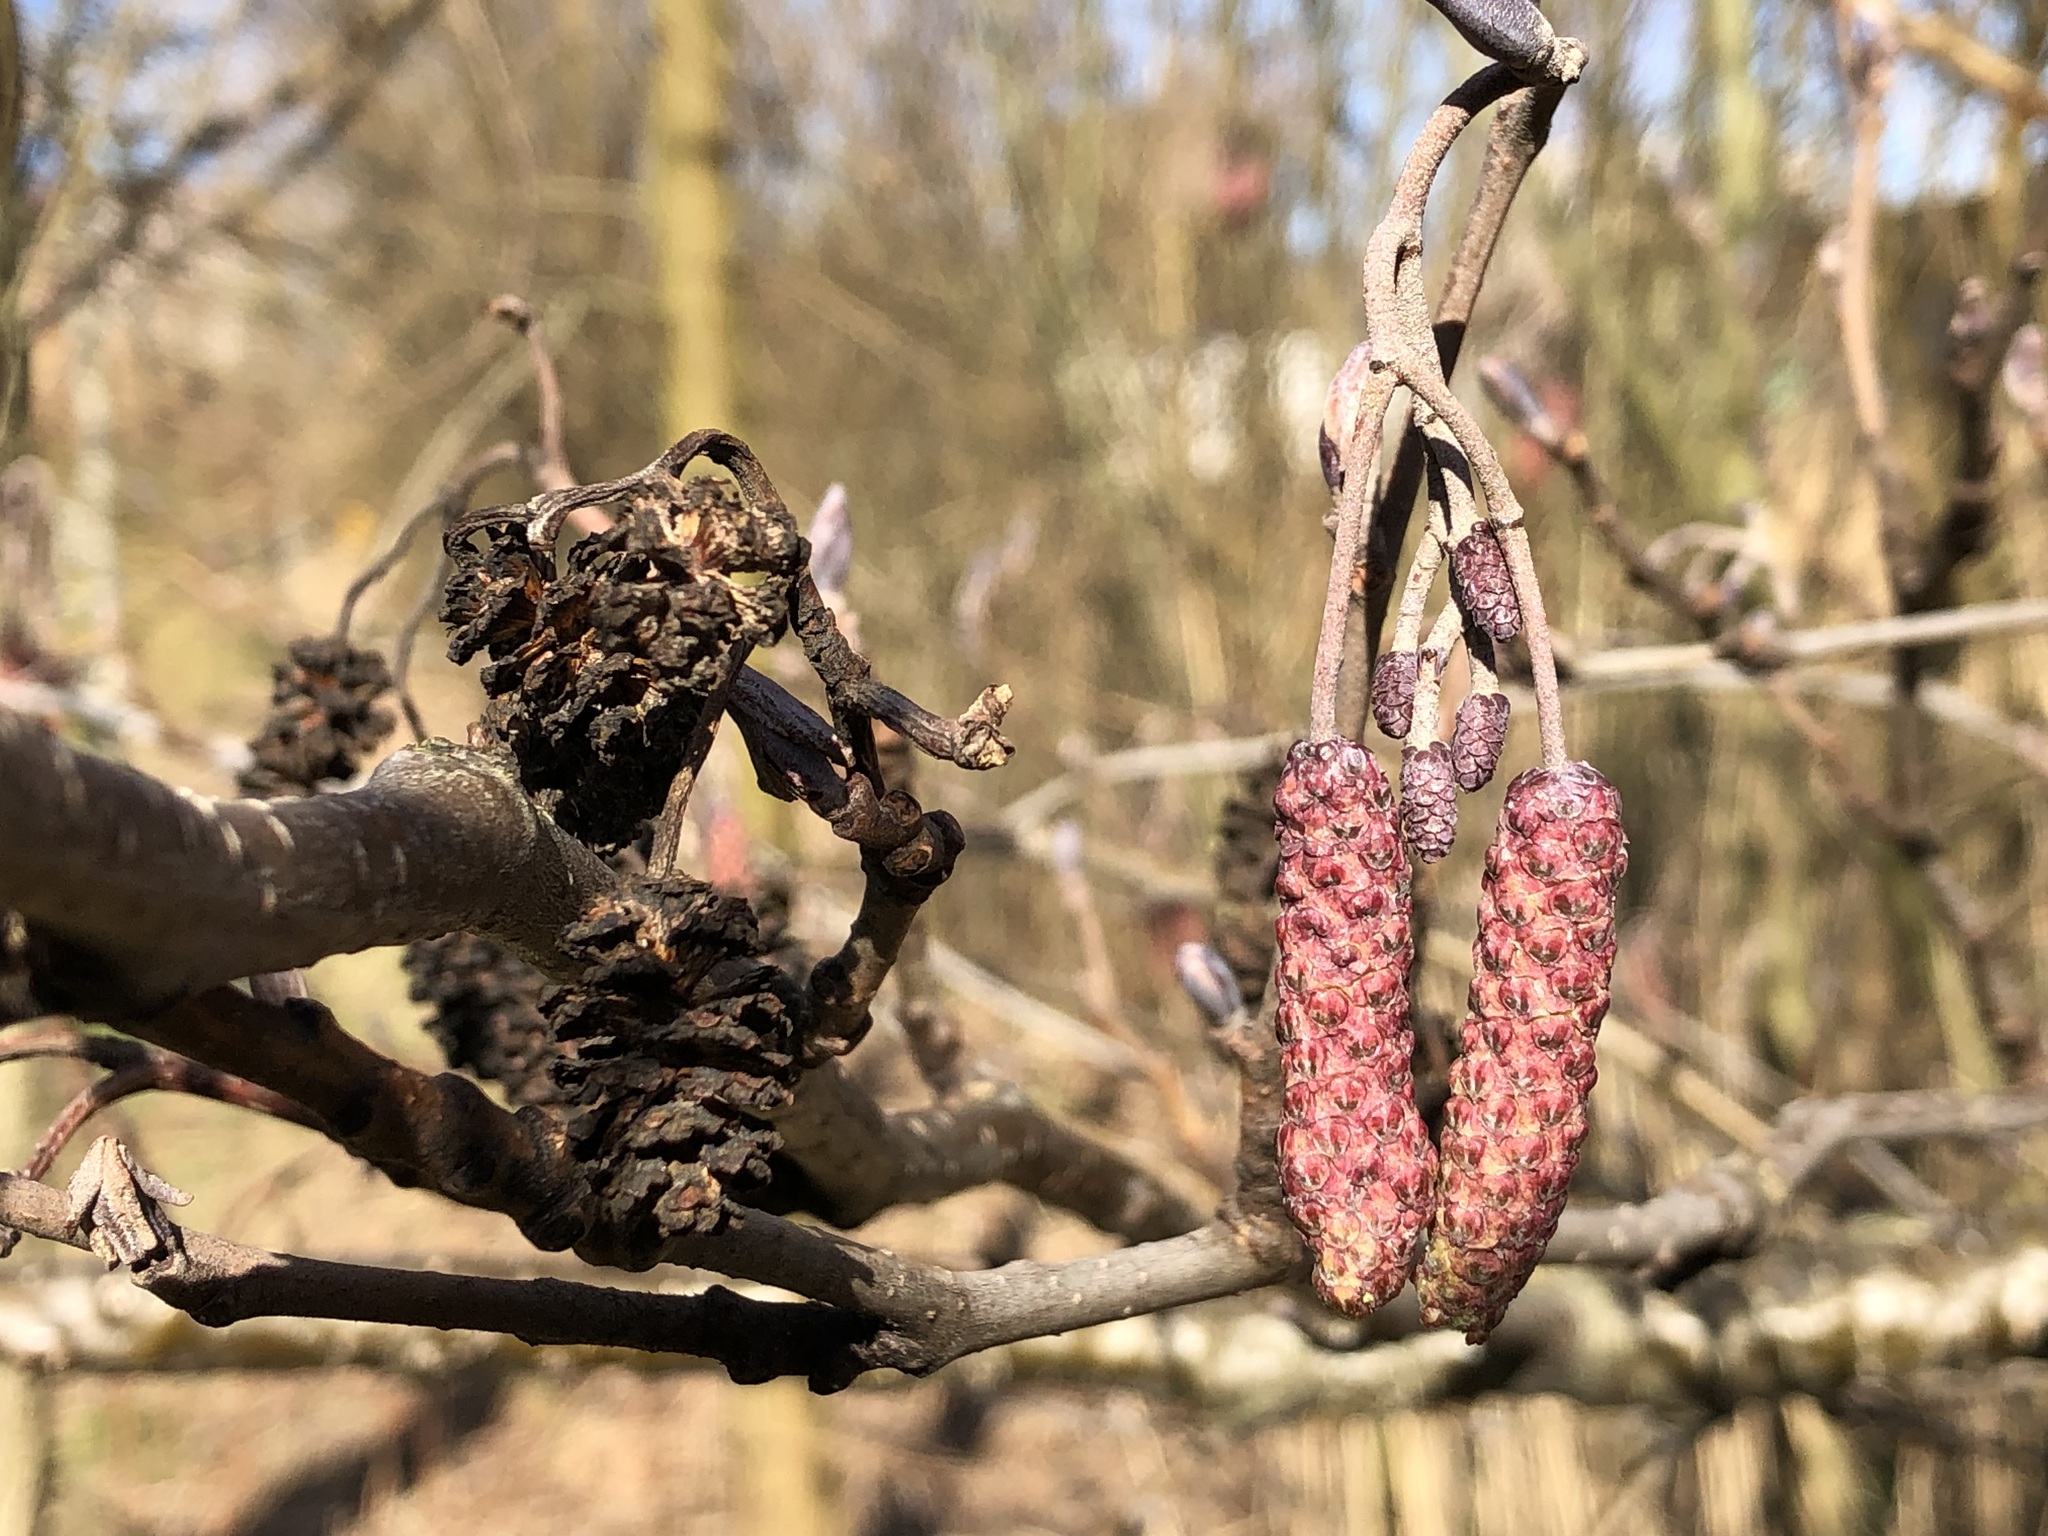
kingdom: Plantae
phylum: Tracheophyta
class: Magnoliopsida
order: Fagales
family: Betulaceae
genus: Alnus
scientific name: Alnus glutinosa
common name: Black alder
